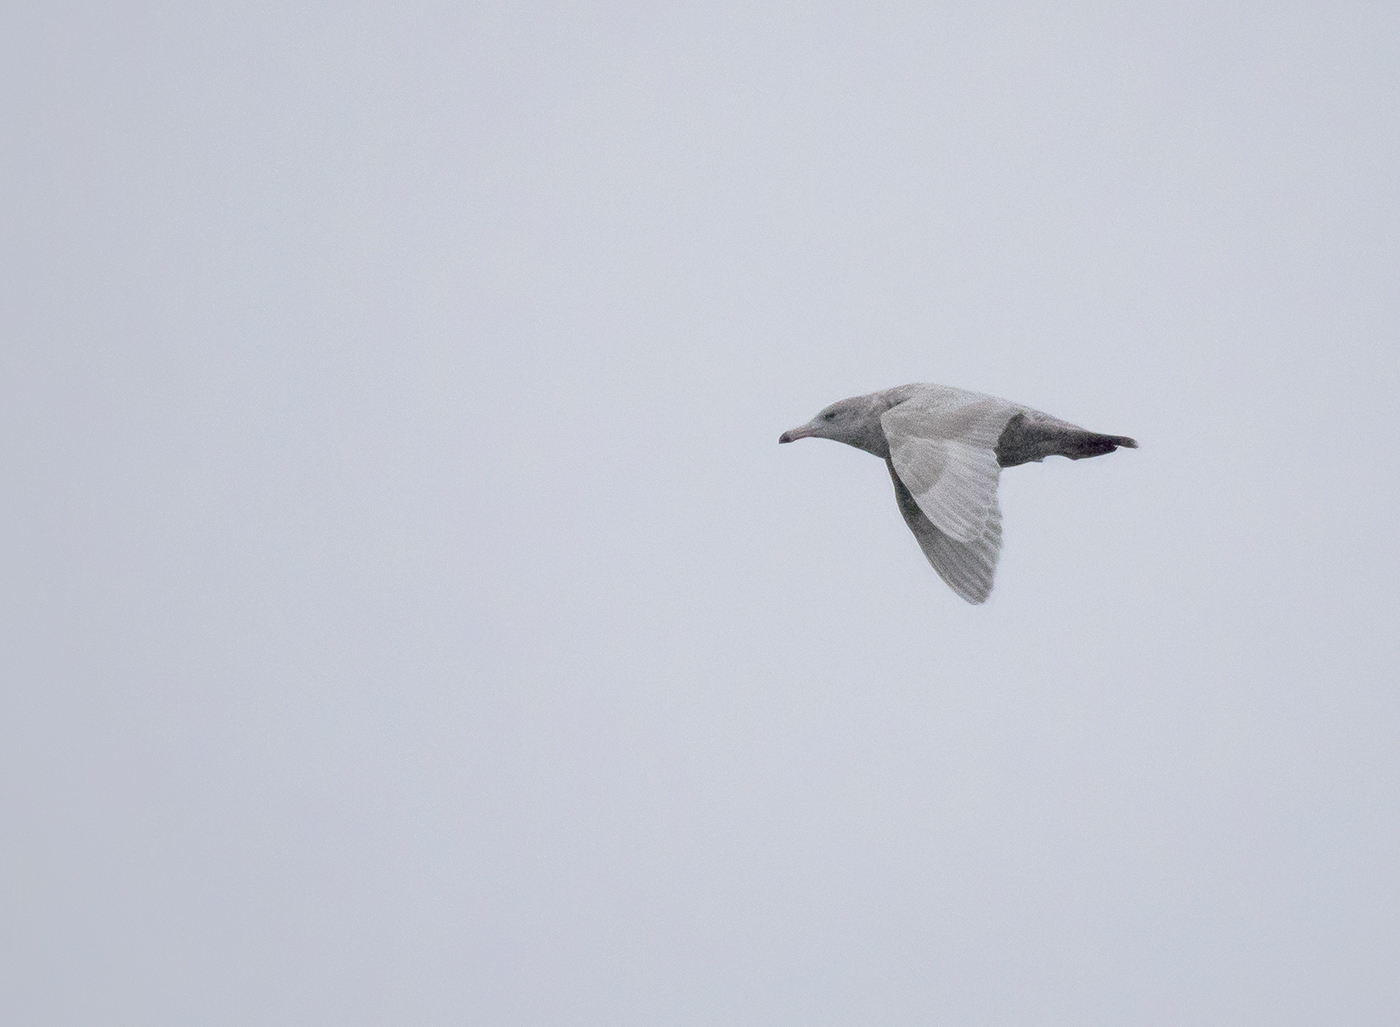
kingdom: Animalia
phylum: Chordata
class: Aves
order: Charadriiformes
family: Laridae
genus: Larus
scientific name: Larus hyperboreus
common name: Glaucous gull
